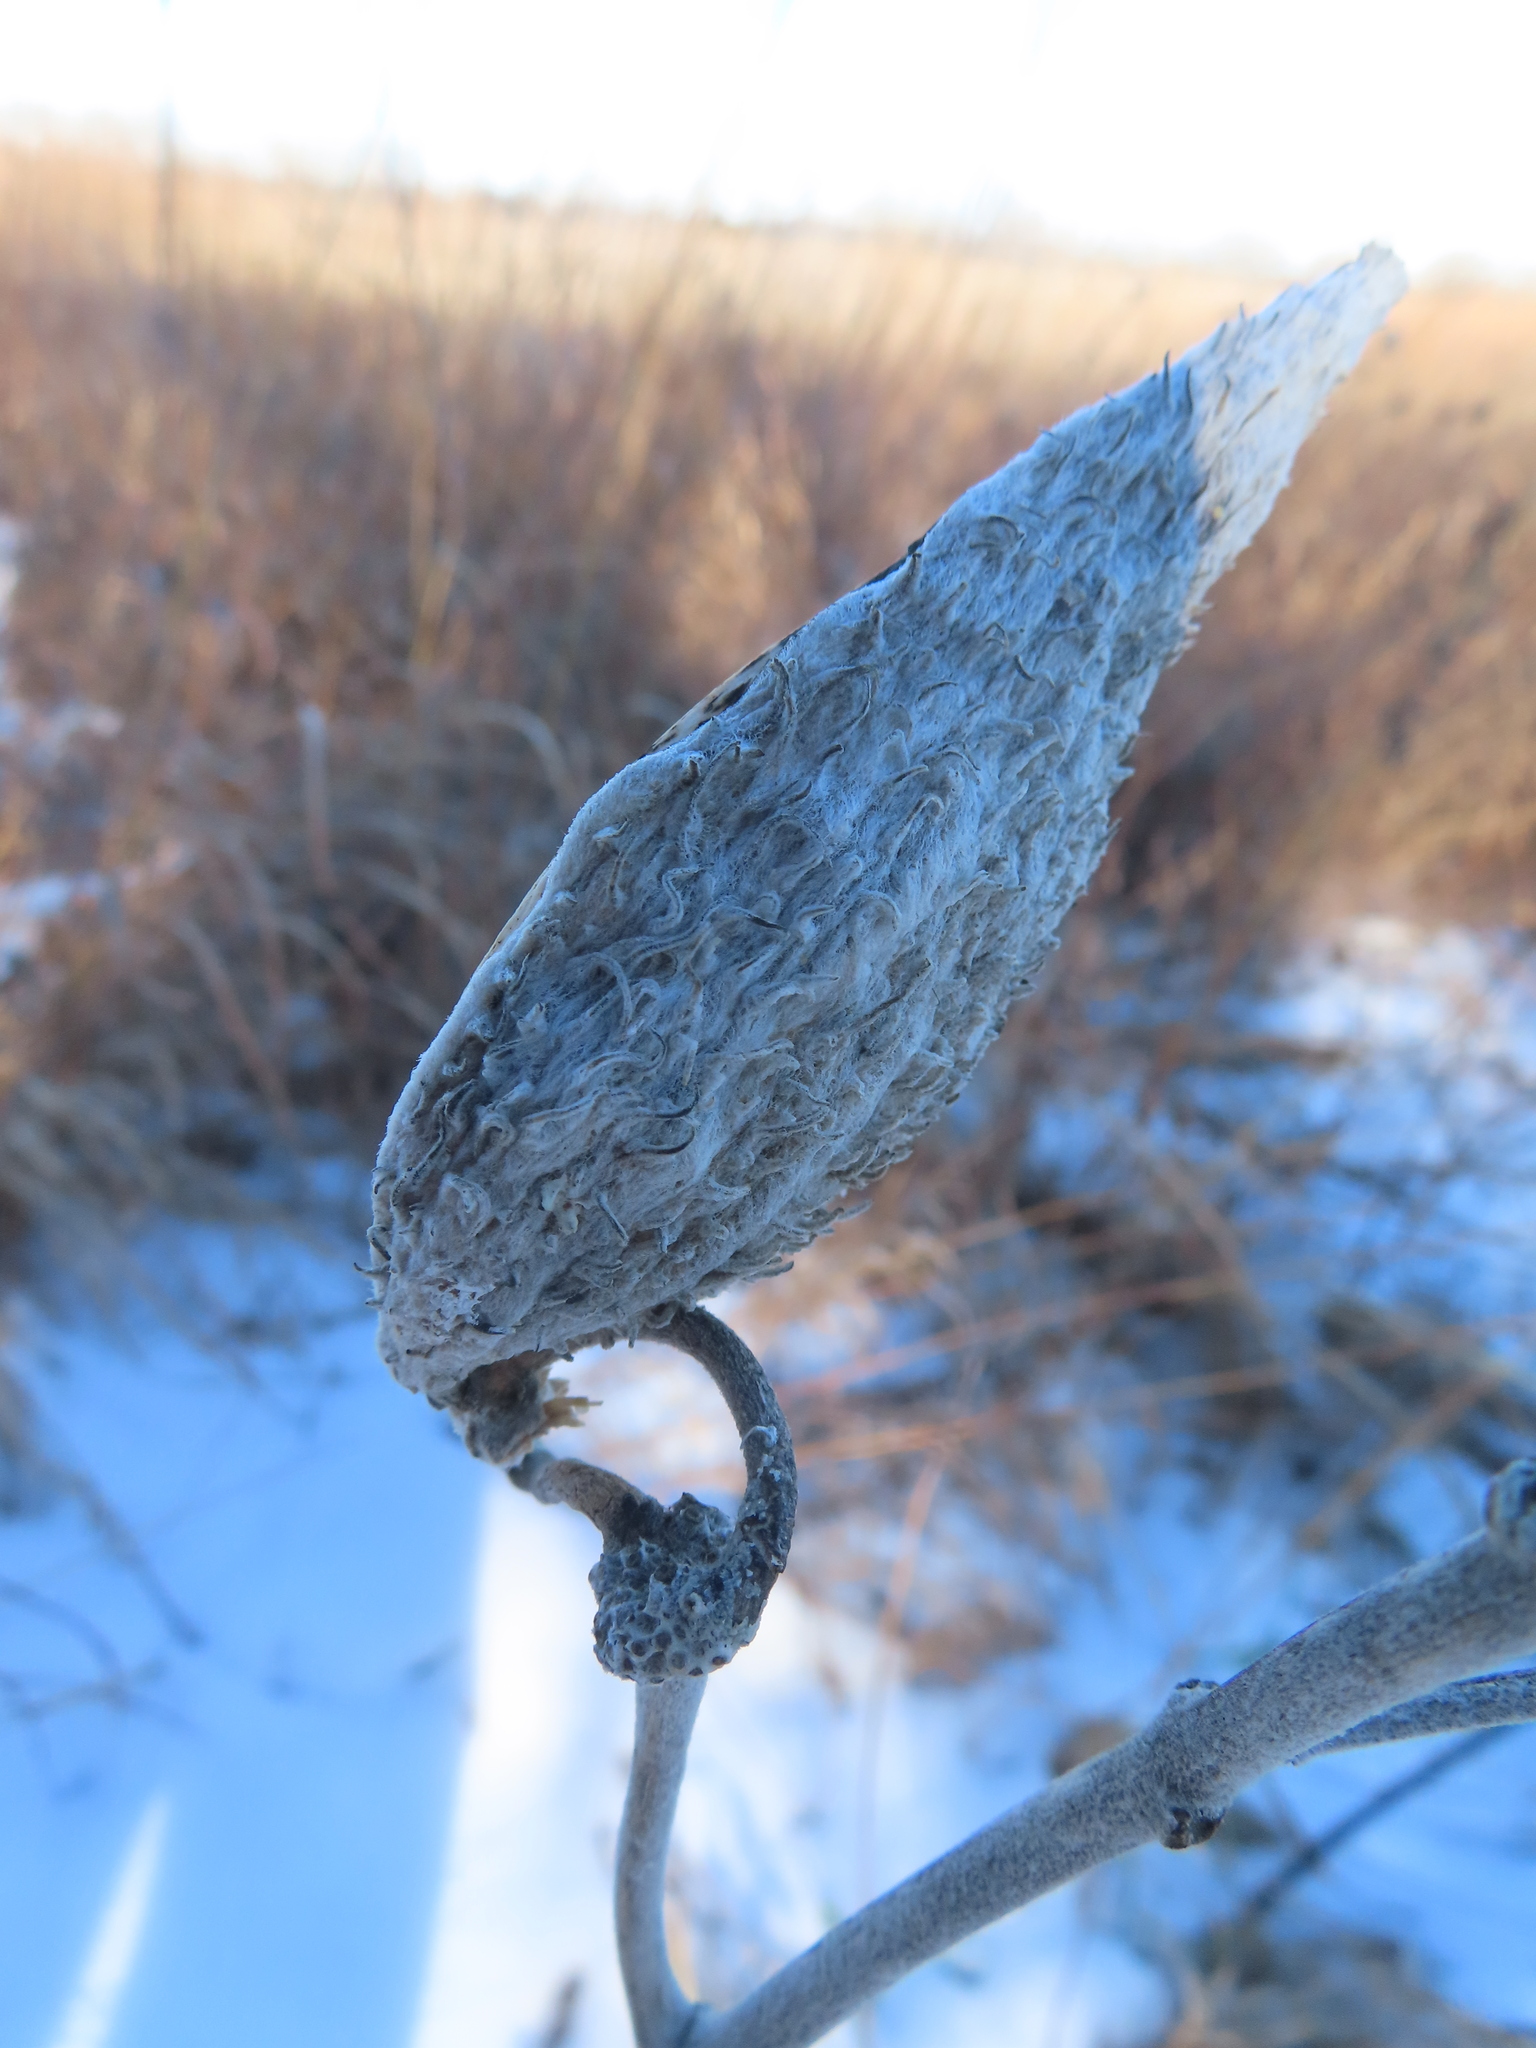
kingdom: Plantae
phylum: Tracheophyta
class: Magnoliopsida
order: Gentianales
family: Apocynaceae
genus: Asclepias
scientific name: Asclepias syriaca
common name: Common milkweed
